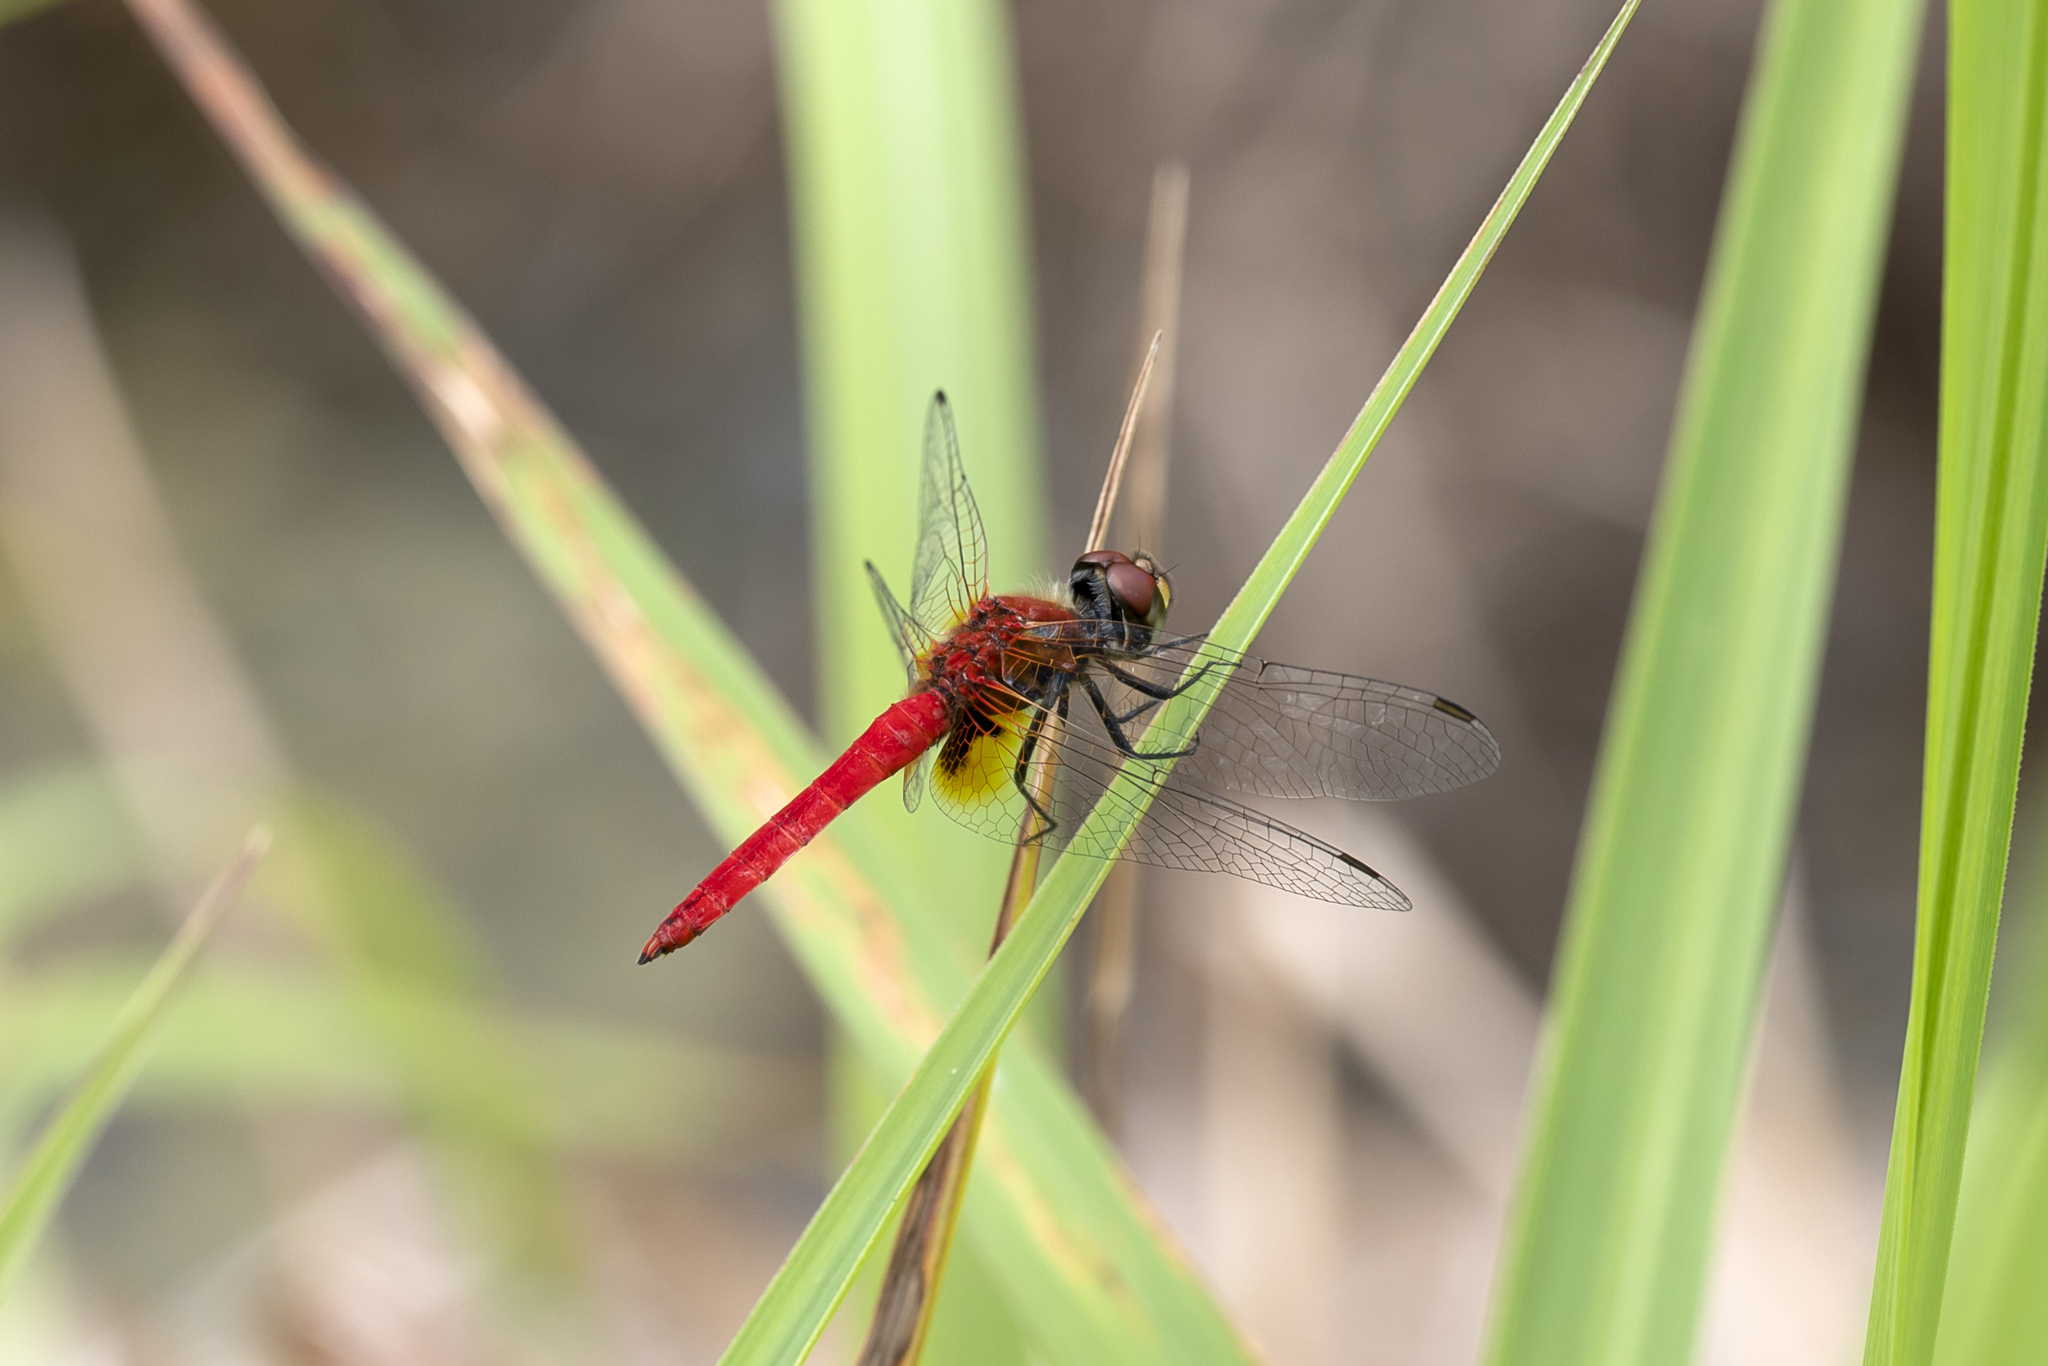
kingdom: Animalia
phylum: Arthropoda
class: Insecta
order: Odonata
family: Libellulidae
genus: Aethriamanta
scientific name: Aethriamanta nymphaeae
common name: L-spot basker
